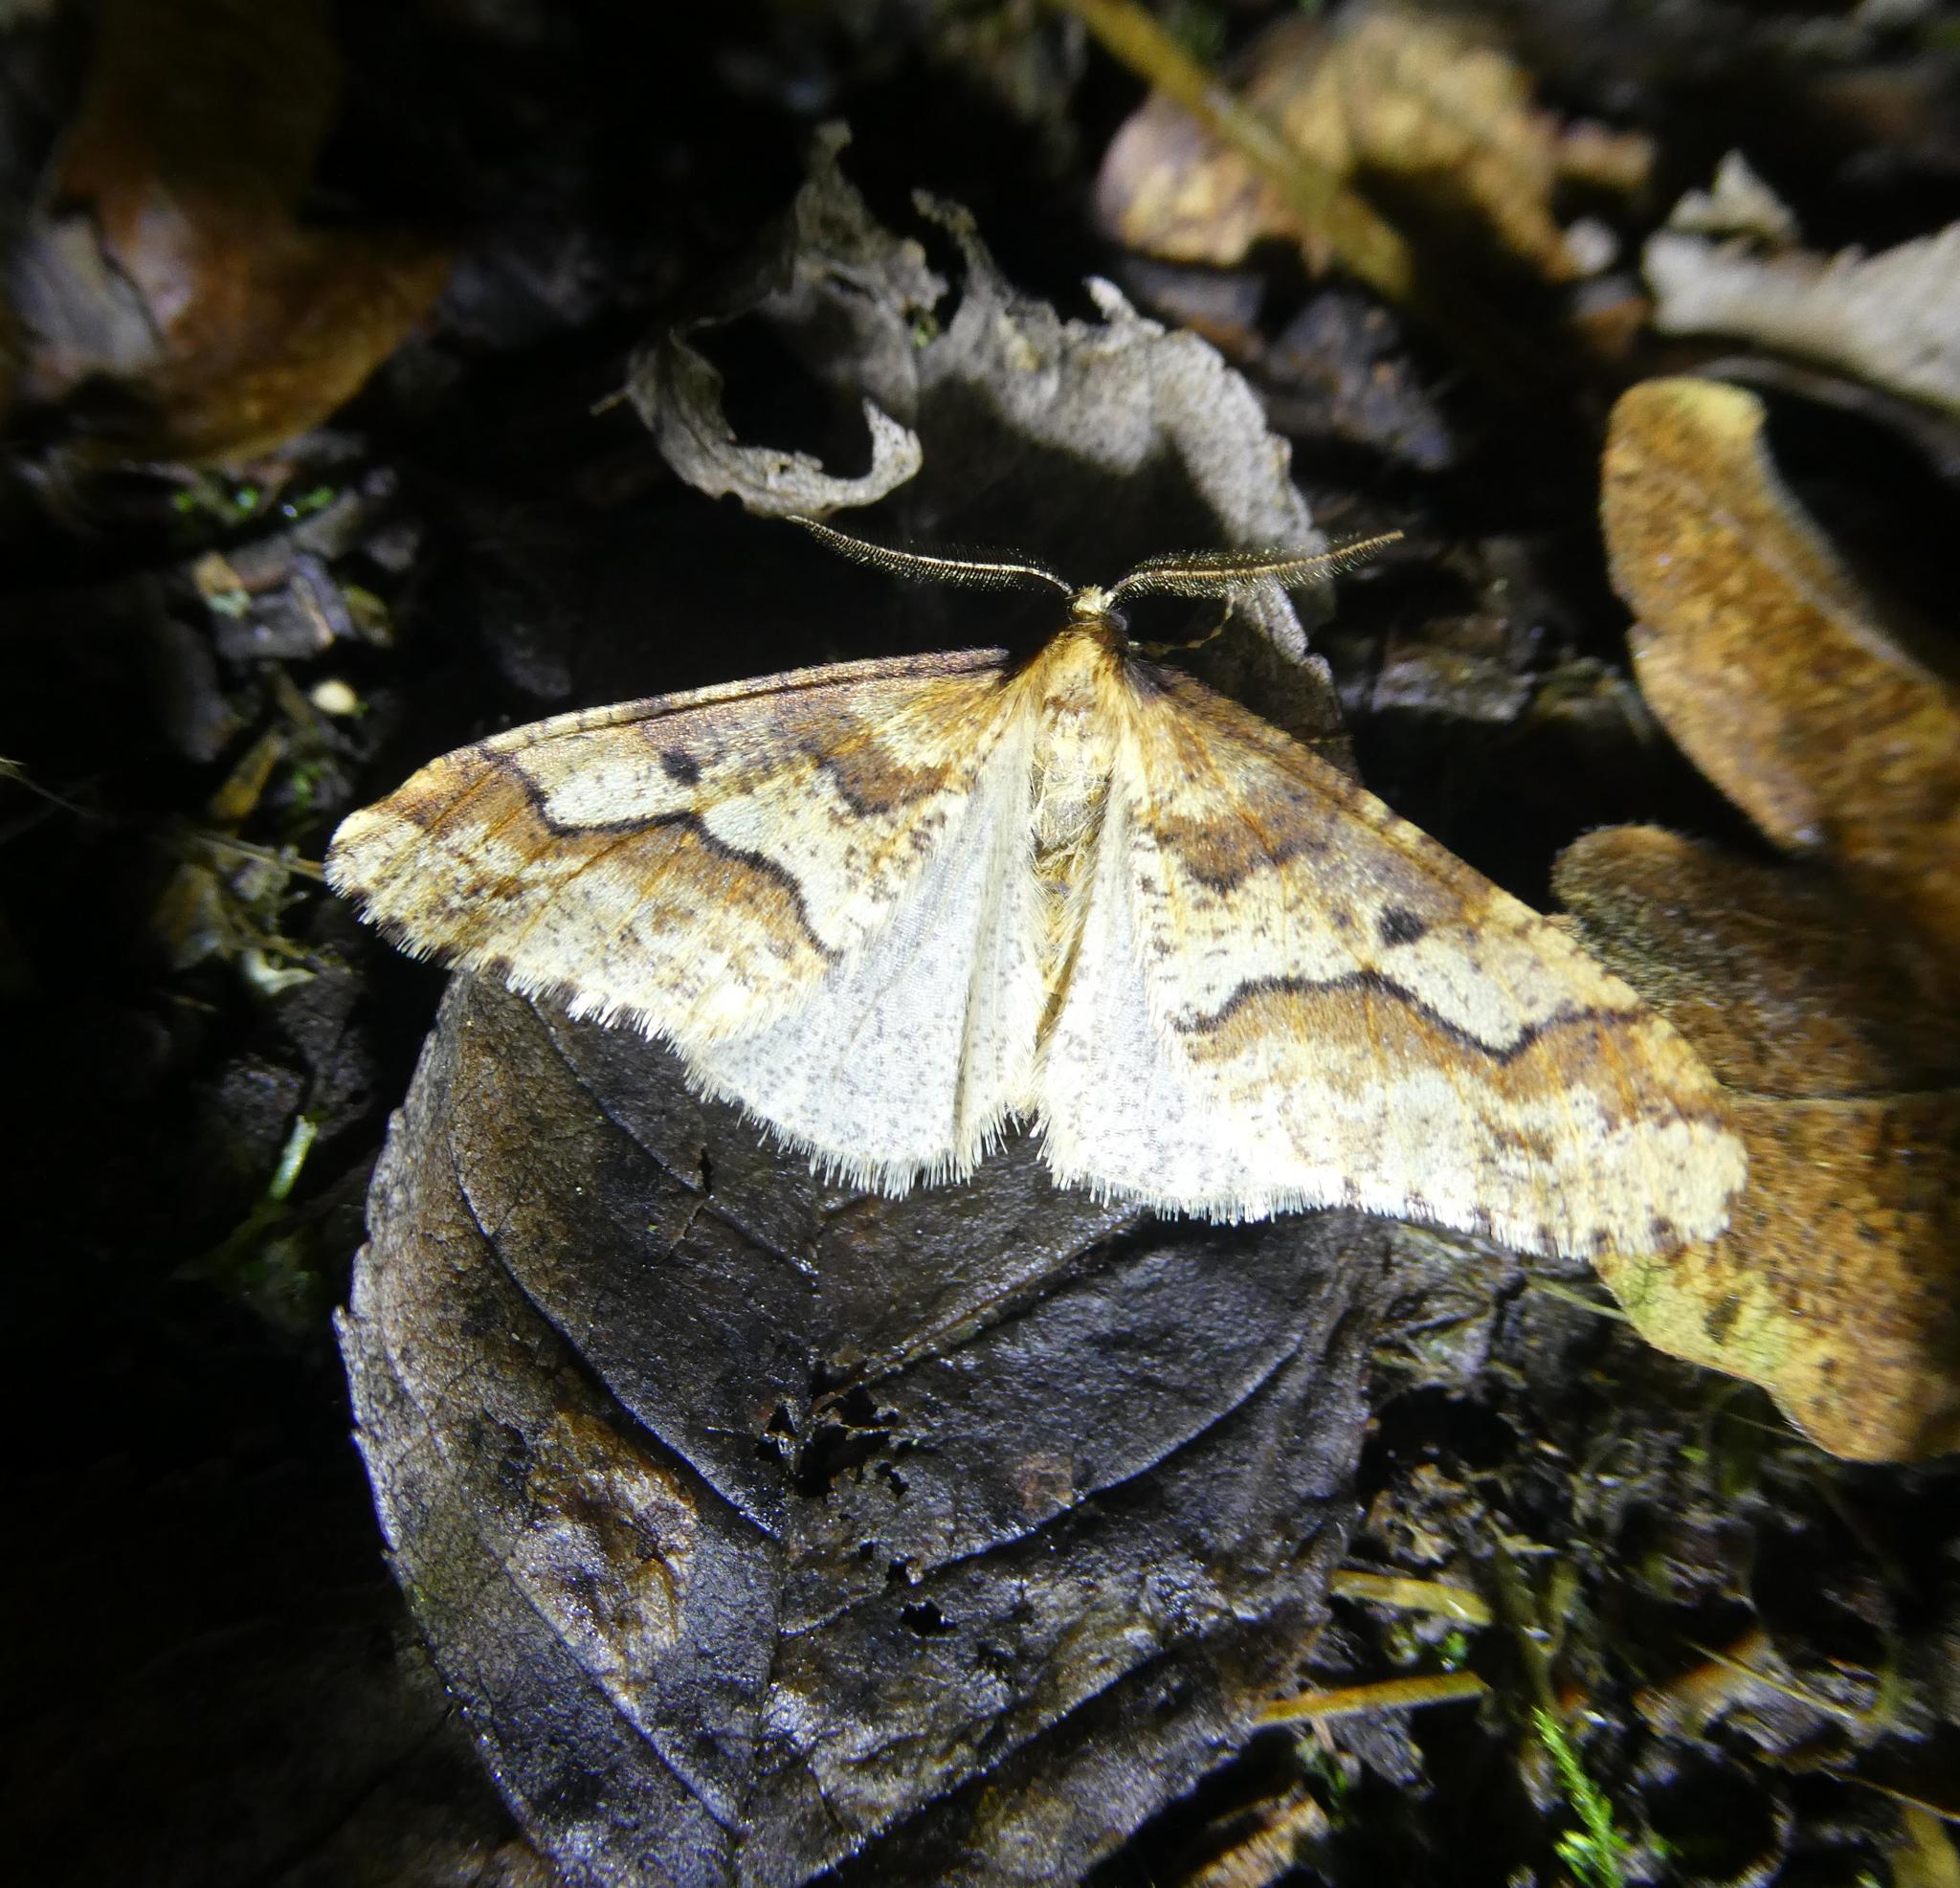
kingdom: Animalia
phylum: Arthropoda
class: Insecta
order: Lepidoptera
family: Geometridae
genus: Erannis
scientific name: Erannis defoliaria
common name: Mottled umber
